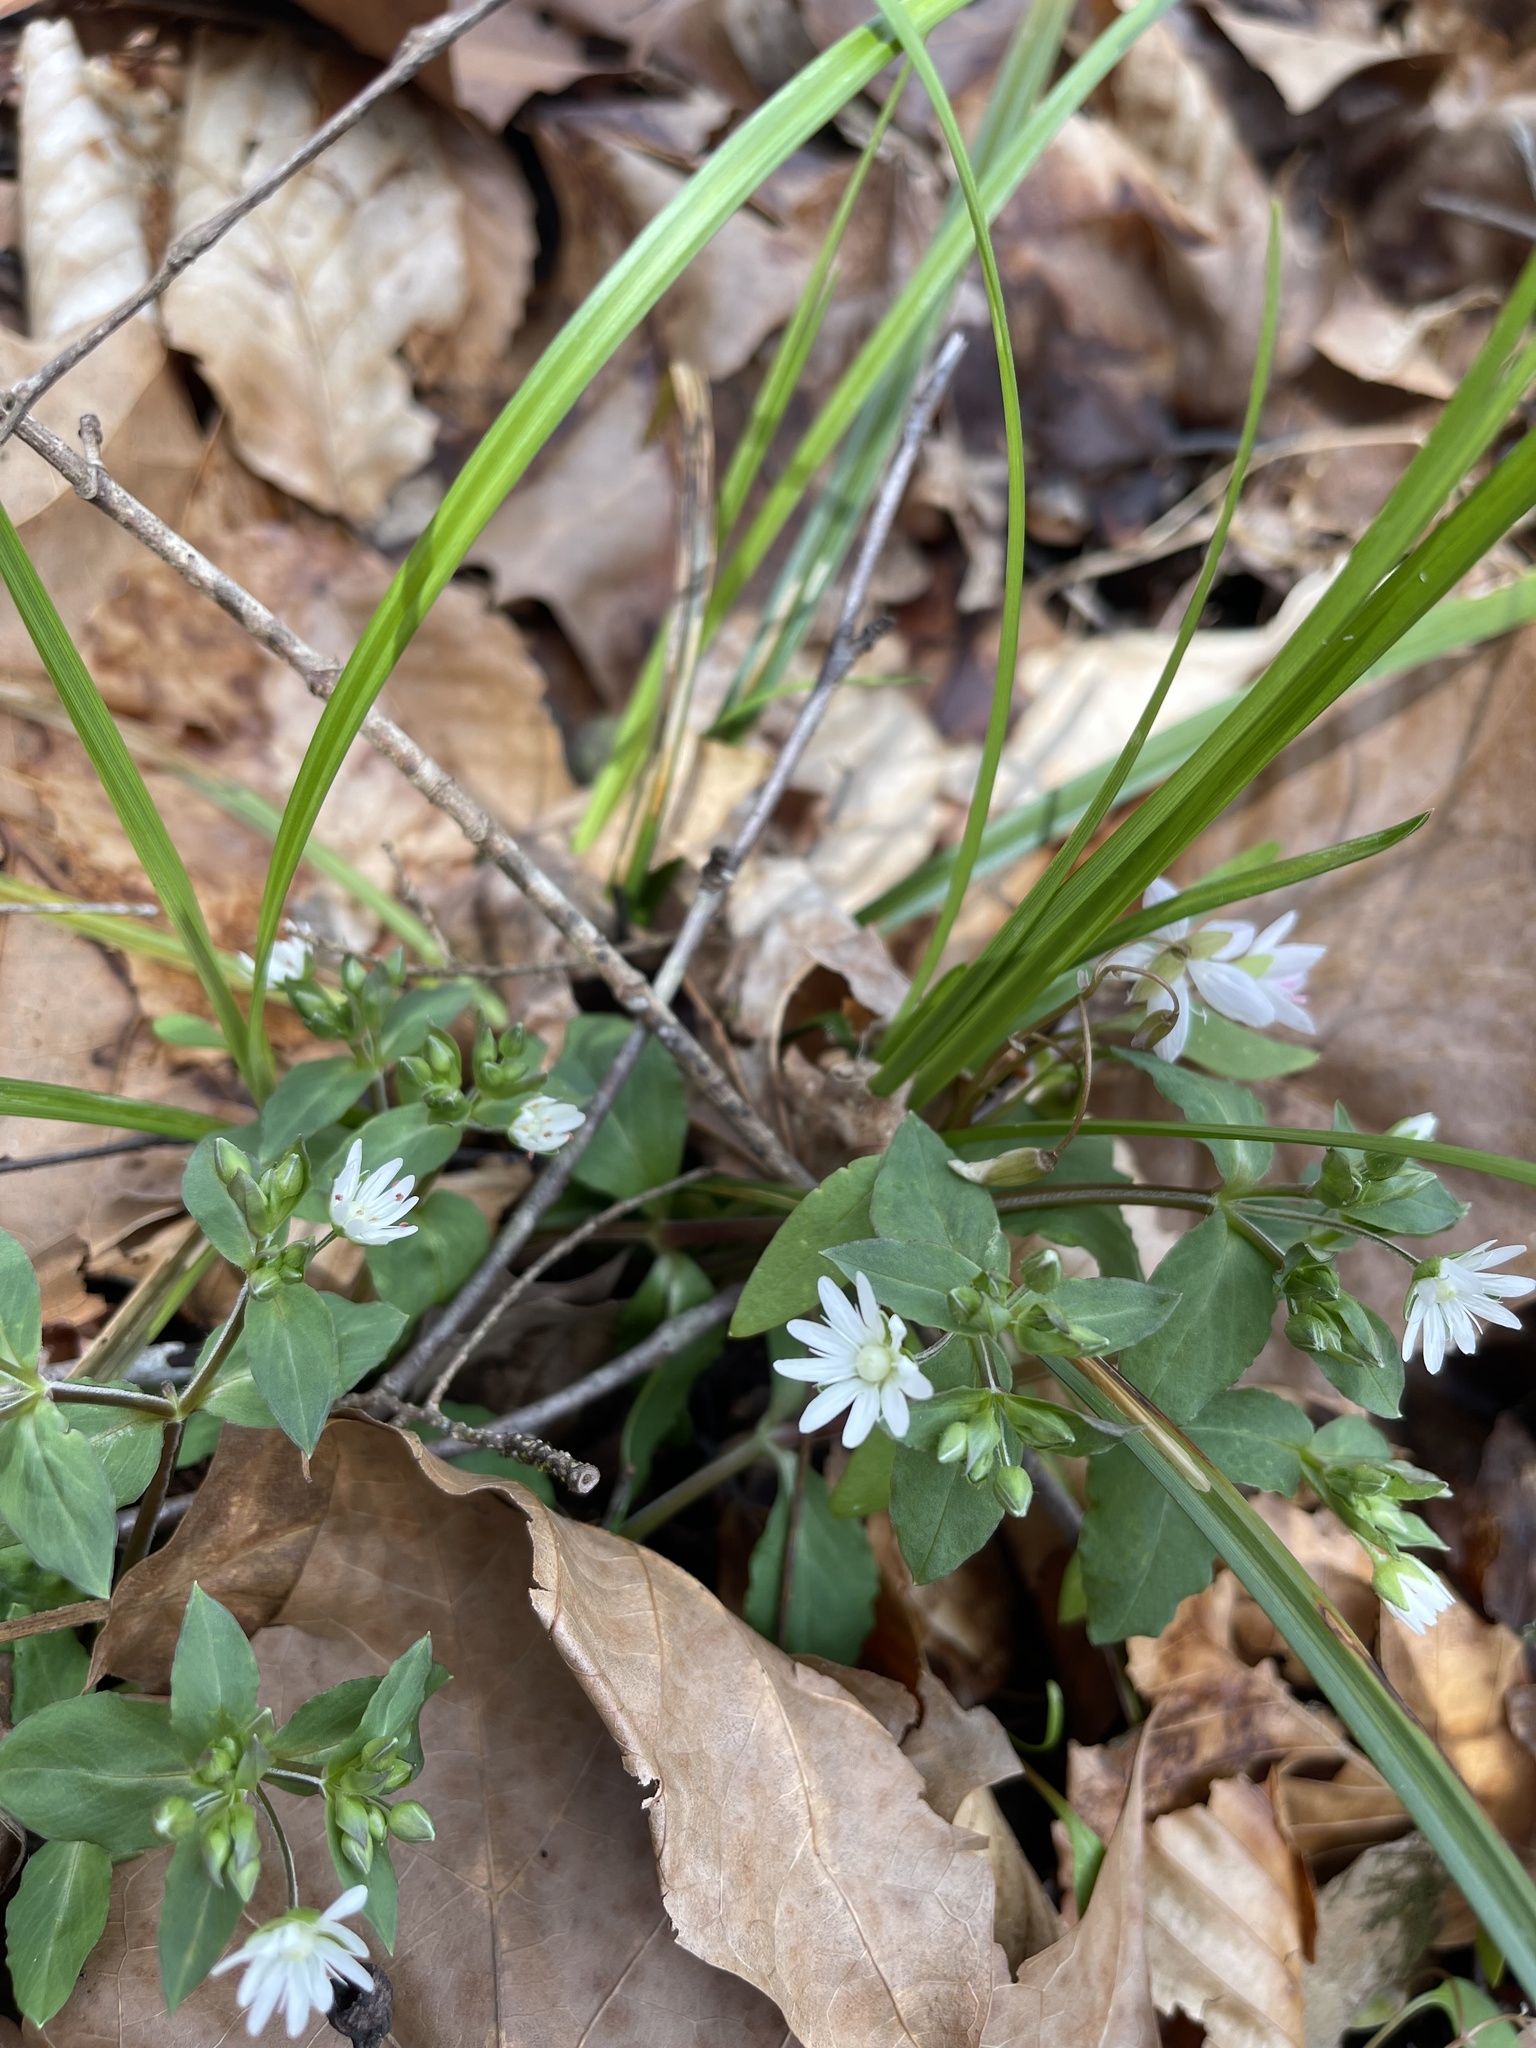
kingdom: Plantae
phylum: Tracheophyta
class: Magnoliopsida
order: Caryophyllales
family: Caryophyllaceae
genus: Stellaria
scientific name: Stellaria pubera
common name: Star chickweed
